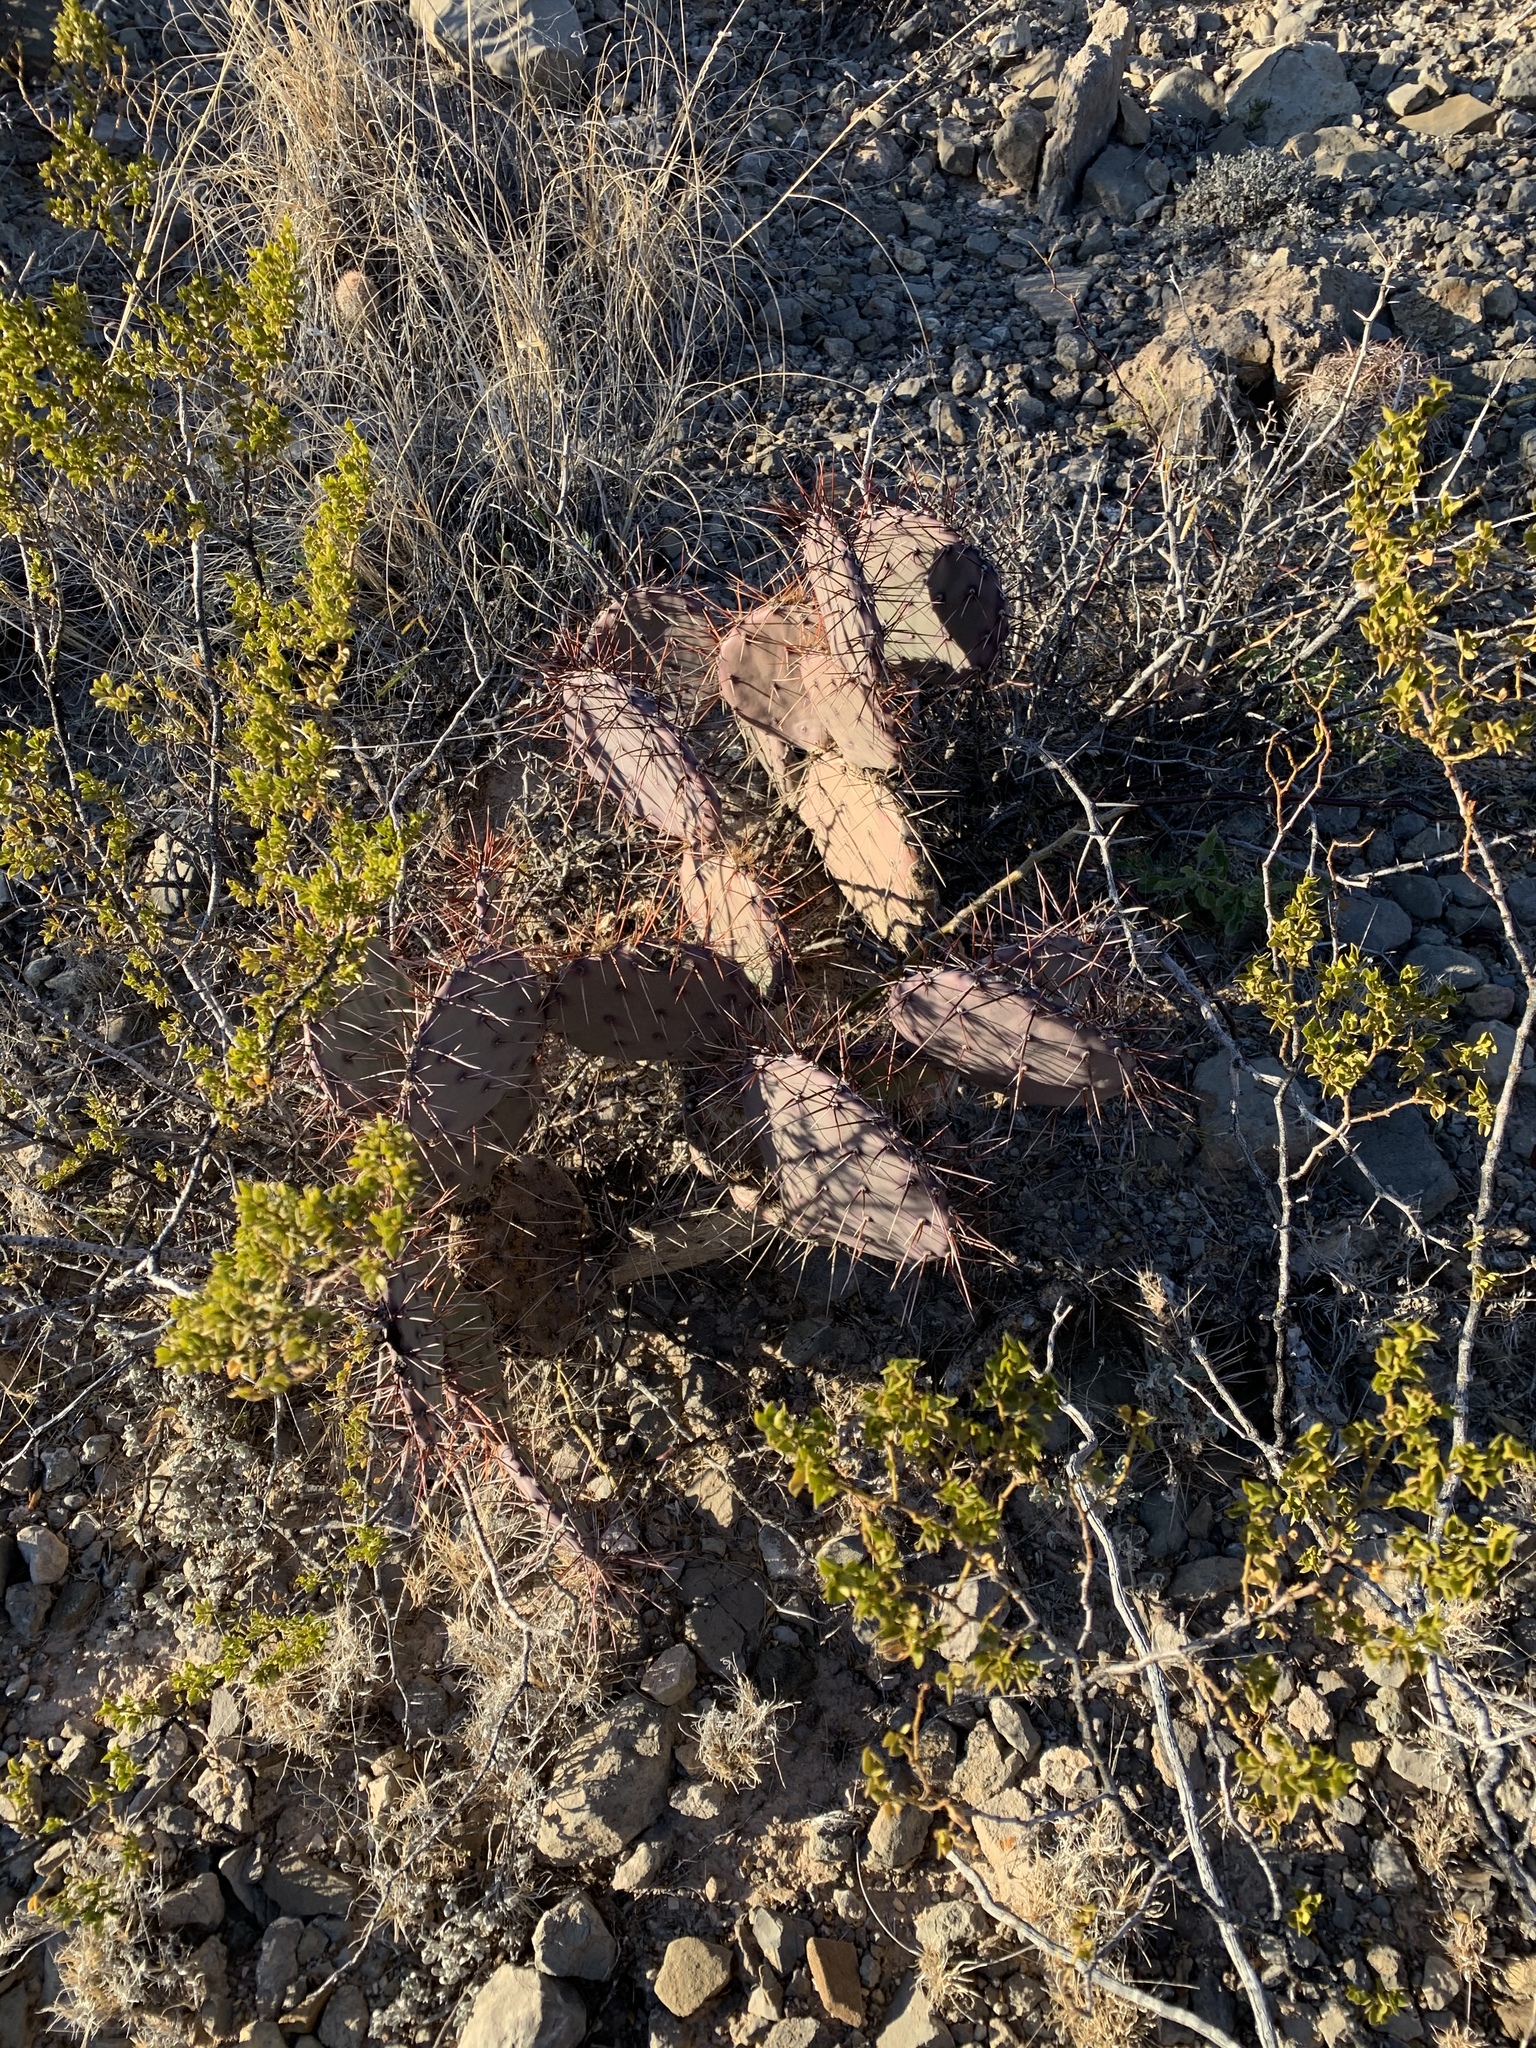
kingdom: Plantae
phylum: Tracheophyta
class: Magnoliopsida
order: Caryophyllales
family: Cactaceae
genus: Opuntia
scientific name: Opuntia macrocentra
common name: Purple prickly-pear
